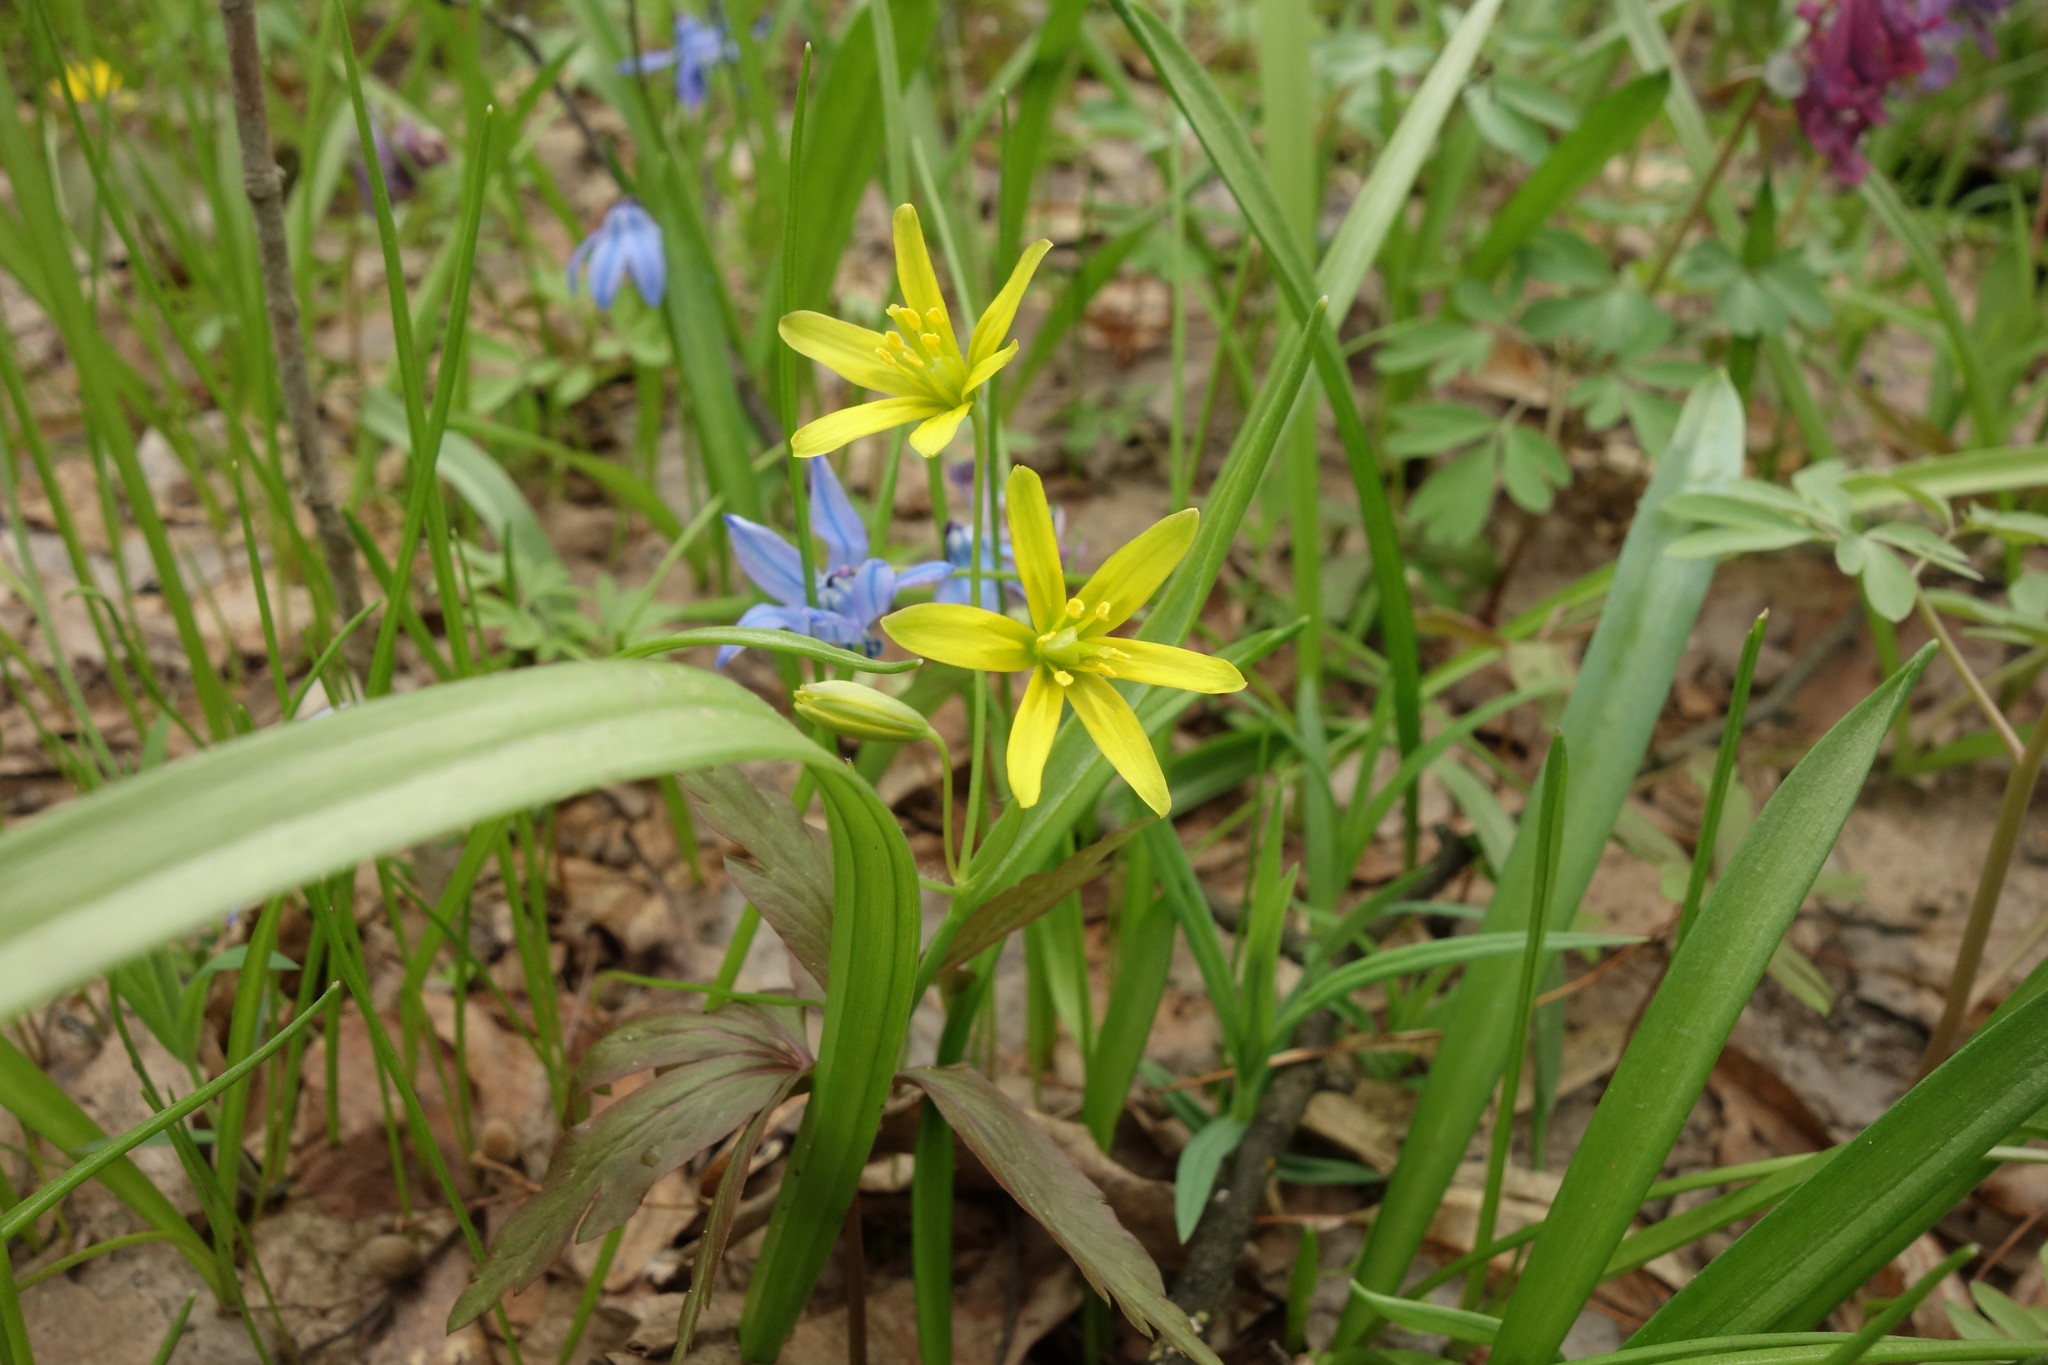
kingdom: Plantae
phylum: Tracheophyta
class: Liliopsida
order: Liliales
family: Liliaceae
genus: Gagea
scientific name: Gagea lutea
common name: Yellow star-of-bethlehem
